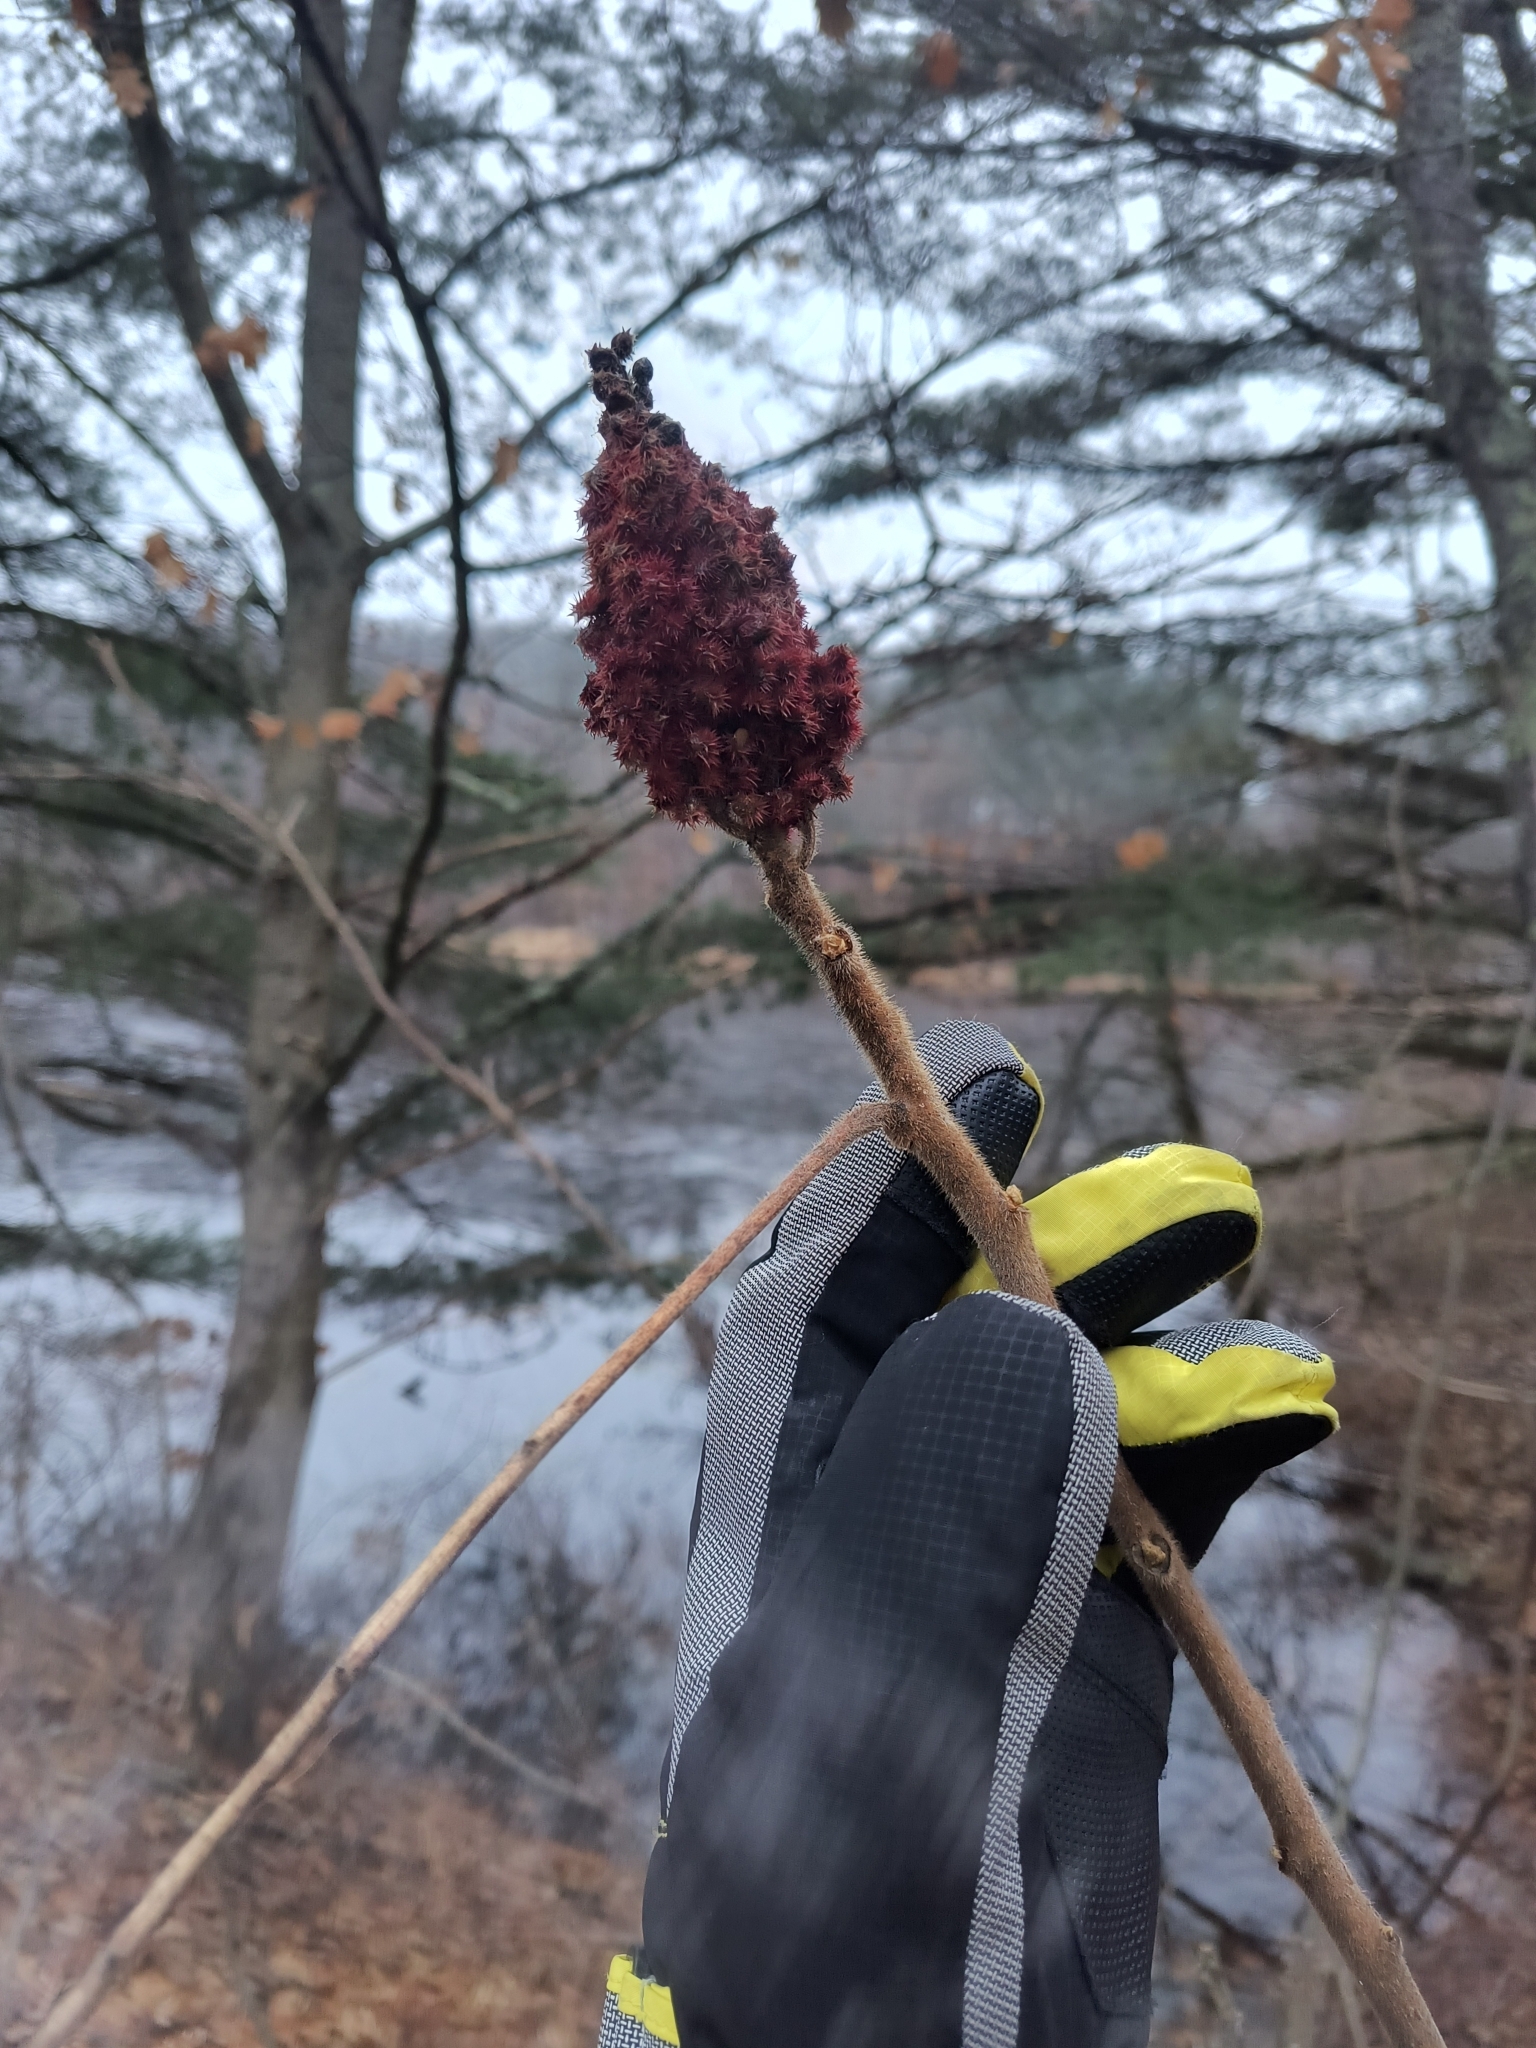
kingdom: Plantae
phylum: Tracheophyta
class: Magnoliopsida
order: Sapindales
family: Anacardiaceae
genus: Rhus
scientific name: Rhus typhina
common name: Staghorn sumac
